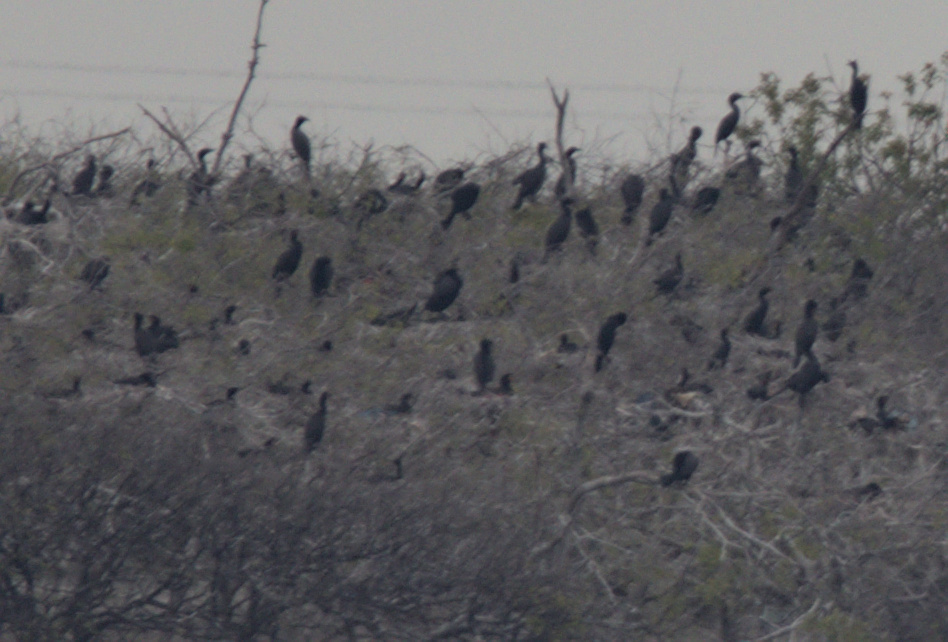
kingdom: Animalia
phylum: Chordata
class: Aves
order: Suliformes
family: Phalacrocoracidae
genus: Phalacrocorax
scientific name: Phalacrocorax auritus
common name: Double-crested cormorant
